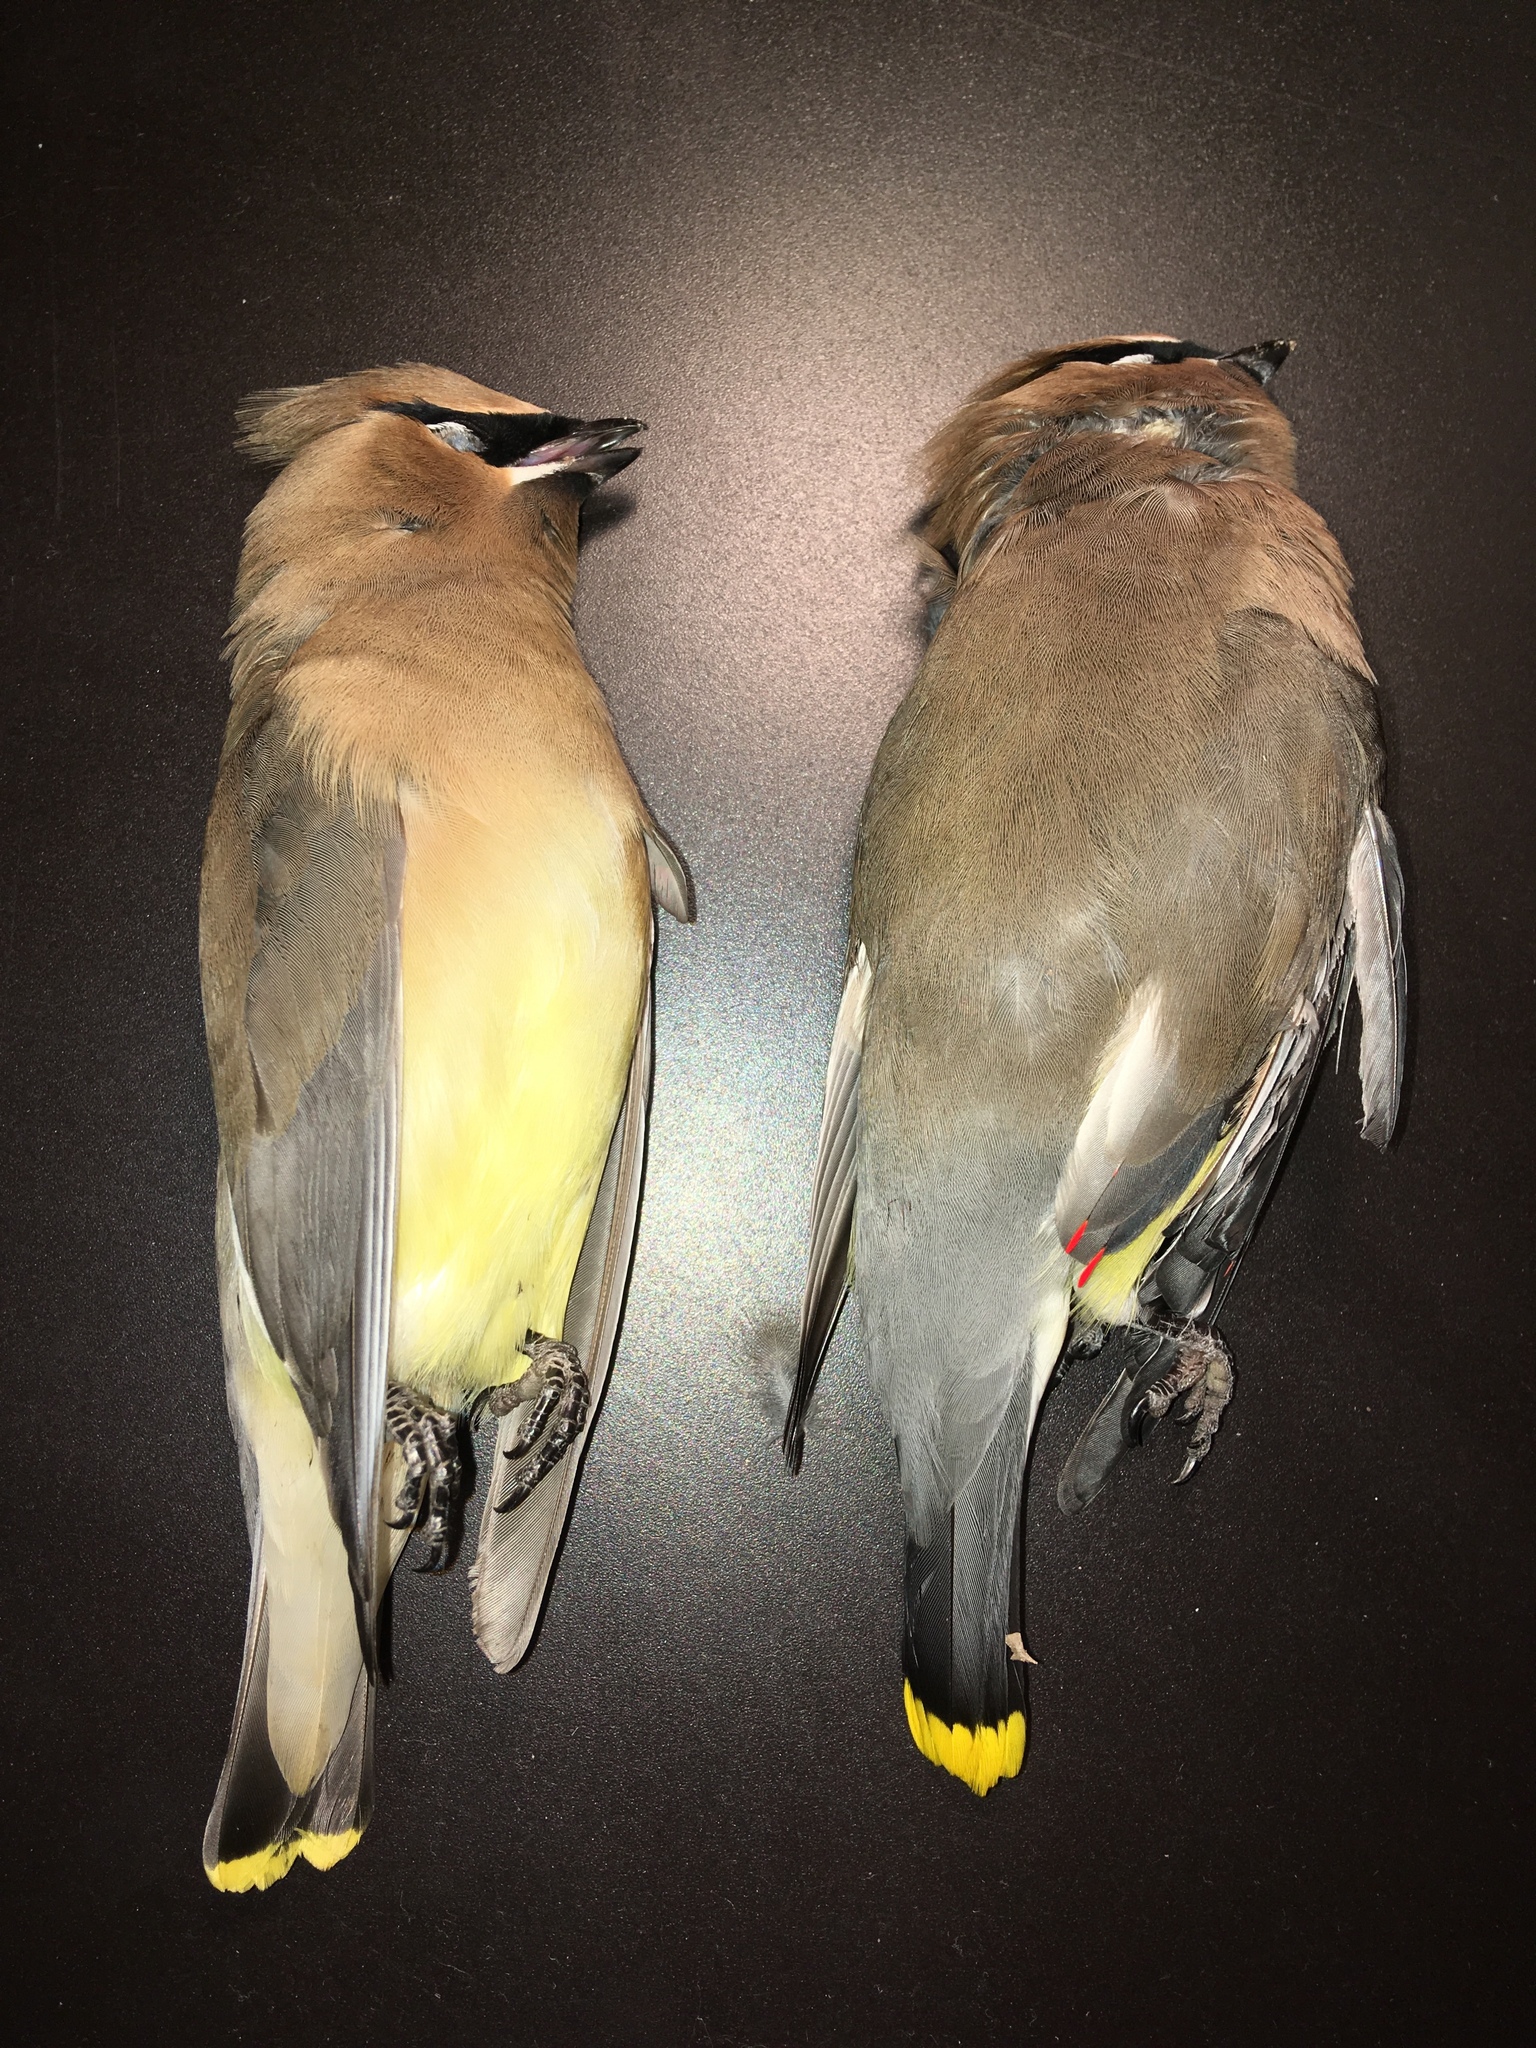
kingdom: Animalia
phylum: Chordata
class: Aves
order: Passeriformes
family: Bombycillidae
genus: Bombycilla
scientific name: Bombycilla cedrorum
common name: Cedar waxwing
